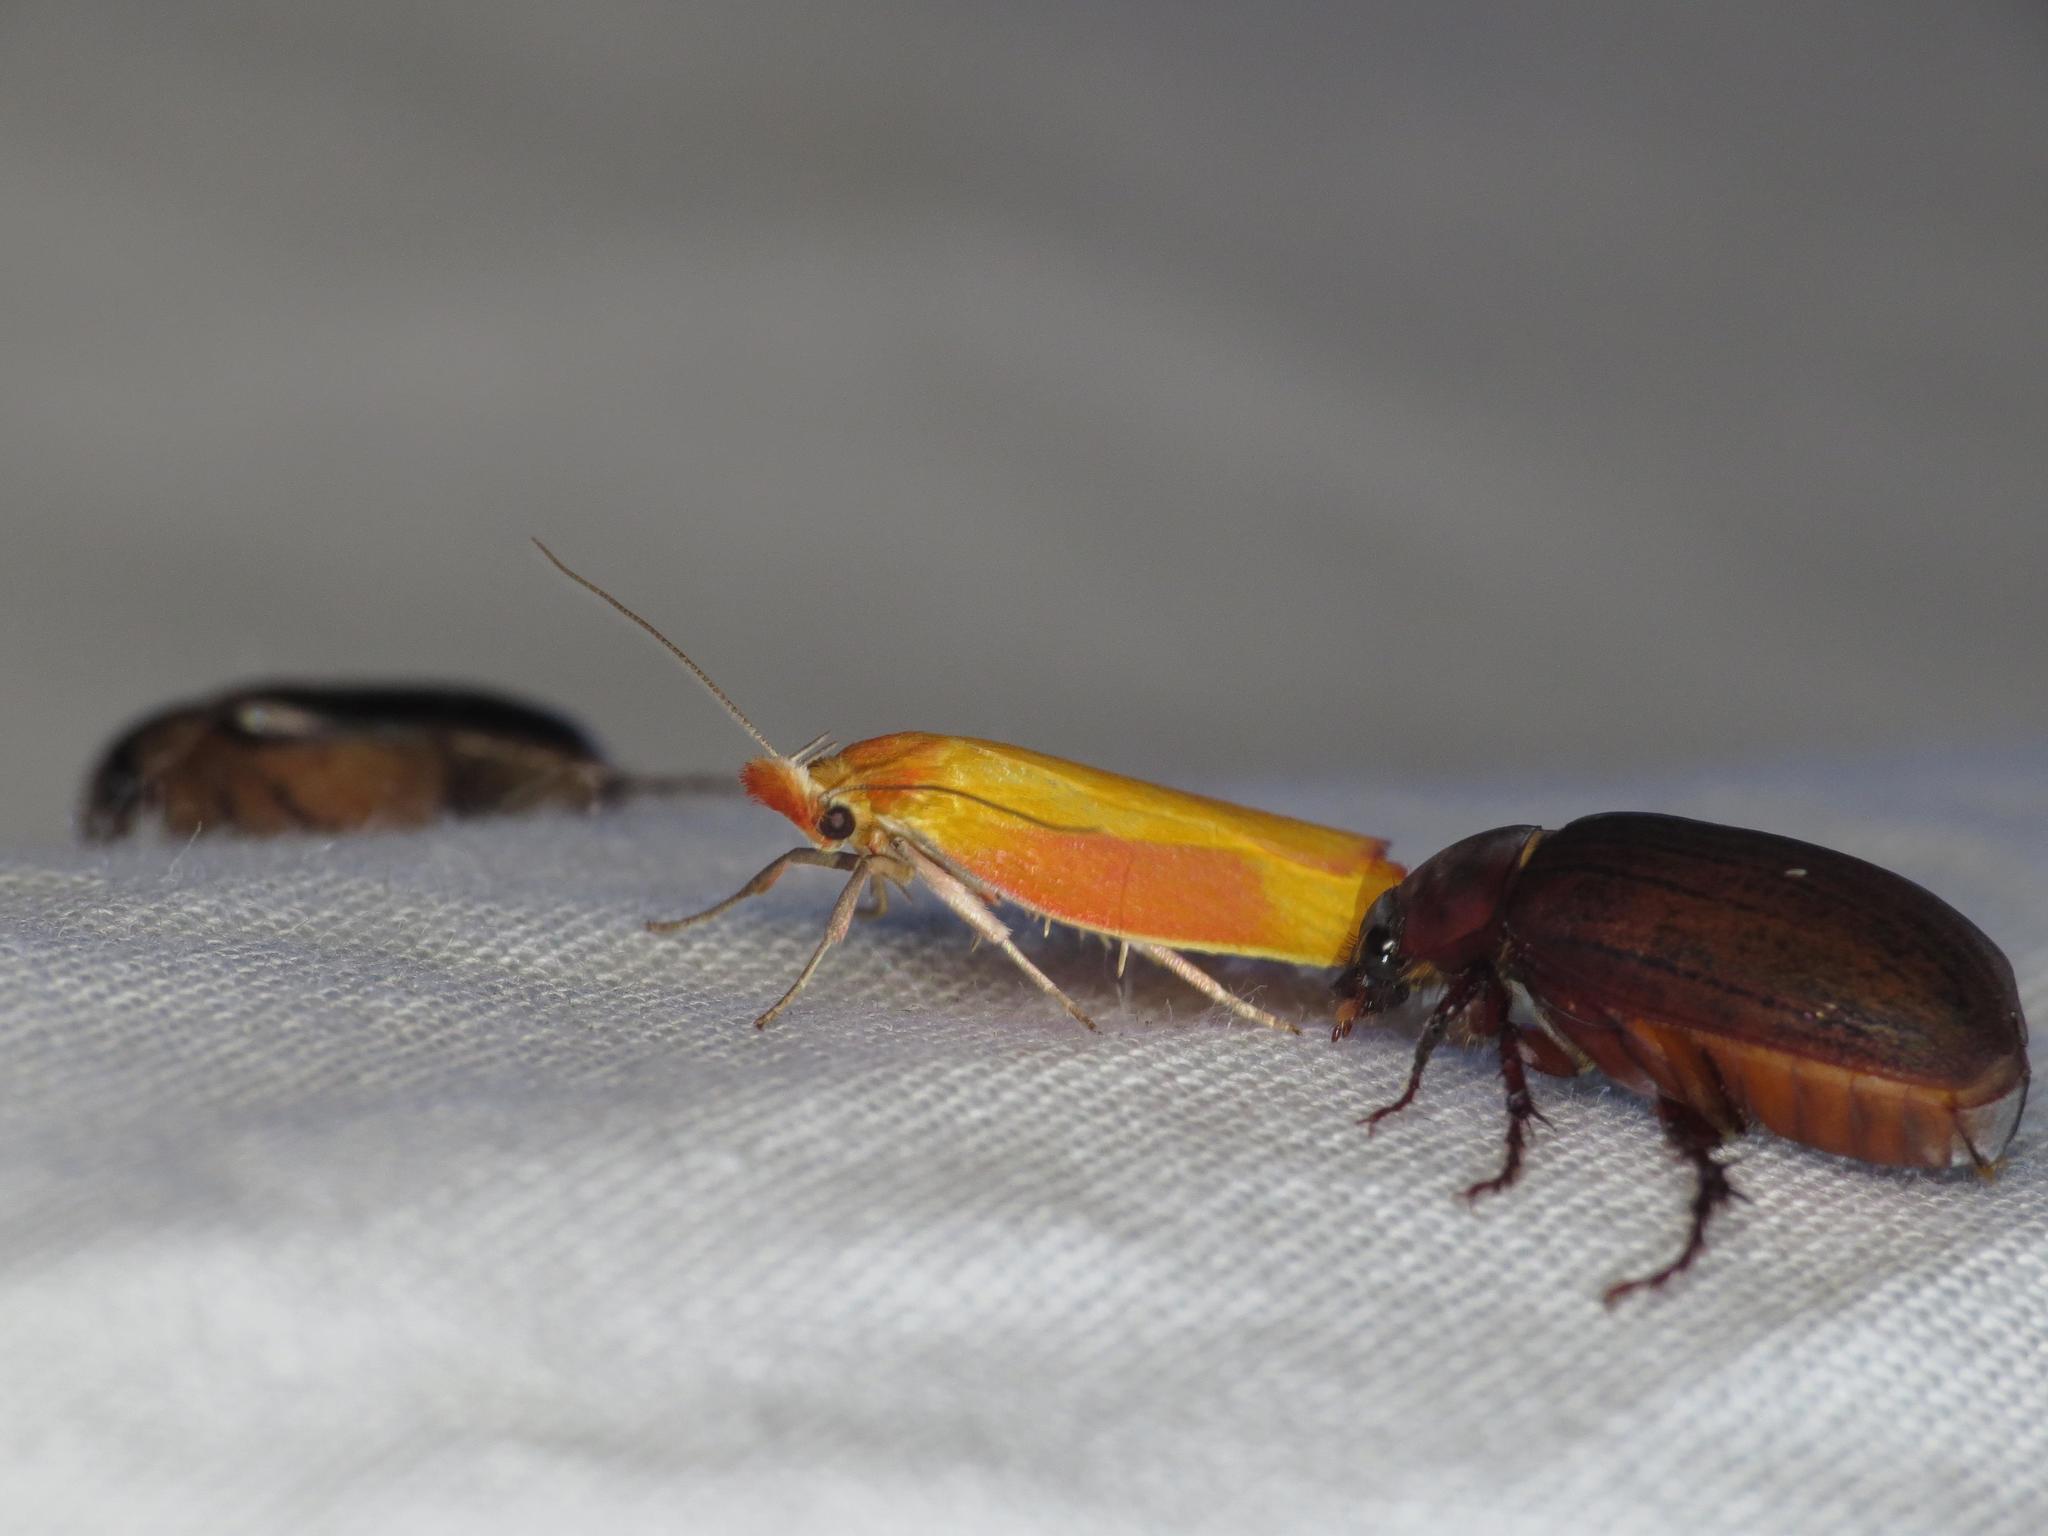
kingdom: Animalia
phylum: Arthropoda
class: Insecta
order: Lepidoptera
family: Oecophoridae
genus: Wingia
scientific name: Wingia hesperidella
